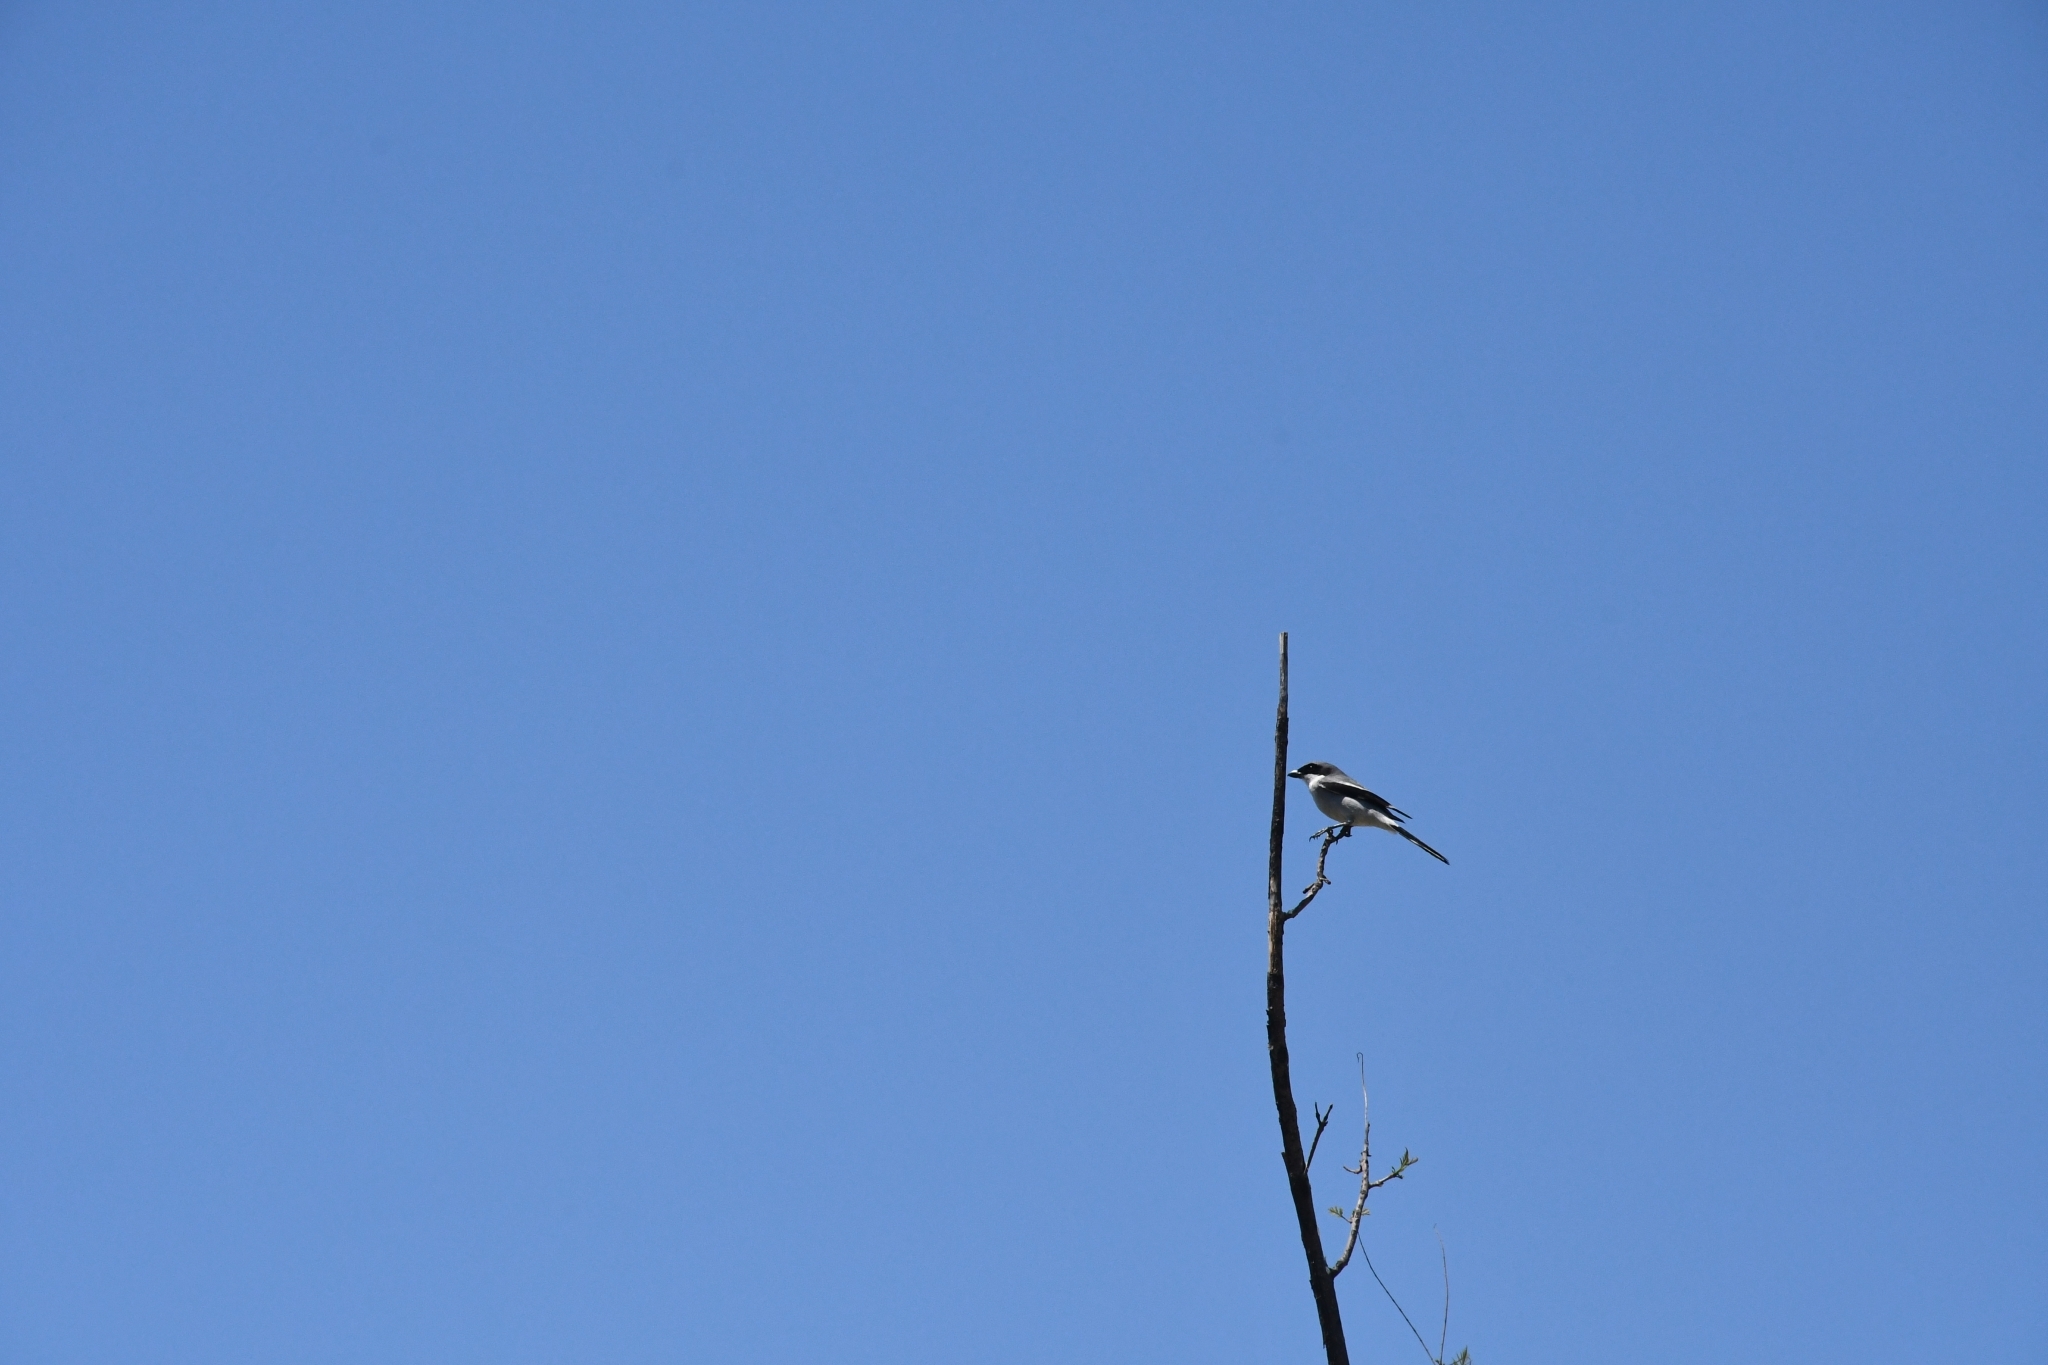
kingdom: Animalia
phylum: Chordata
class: Aves
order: Passeriformes
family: Laniidae
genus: Lanius
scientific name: Lanius ludovicianus
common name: Loggerhead shrike
